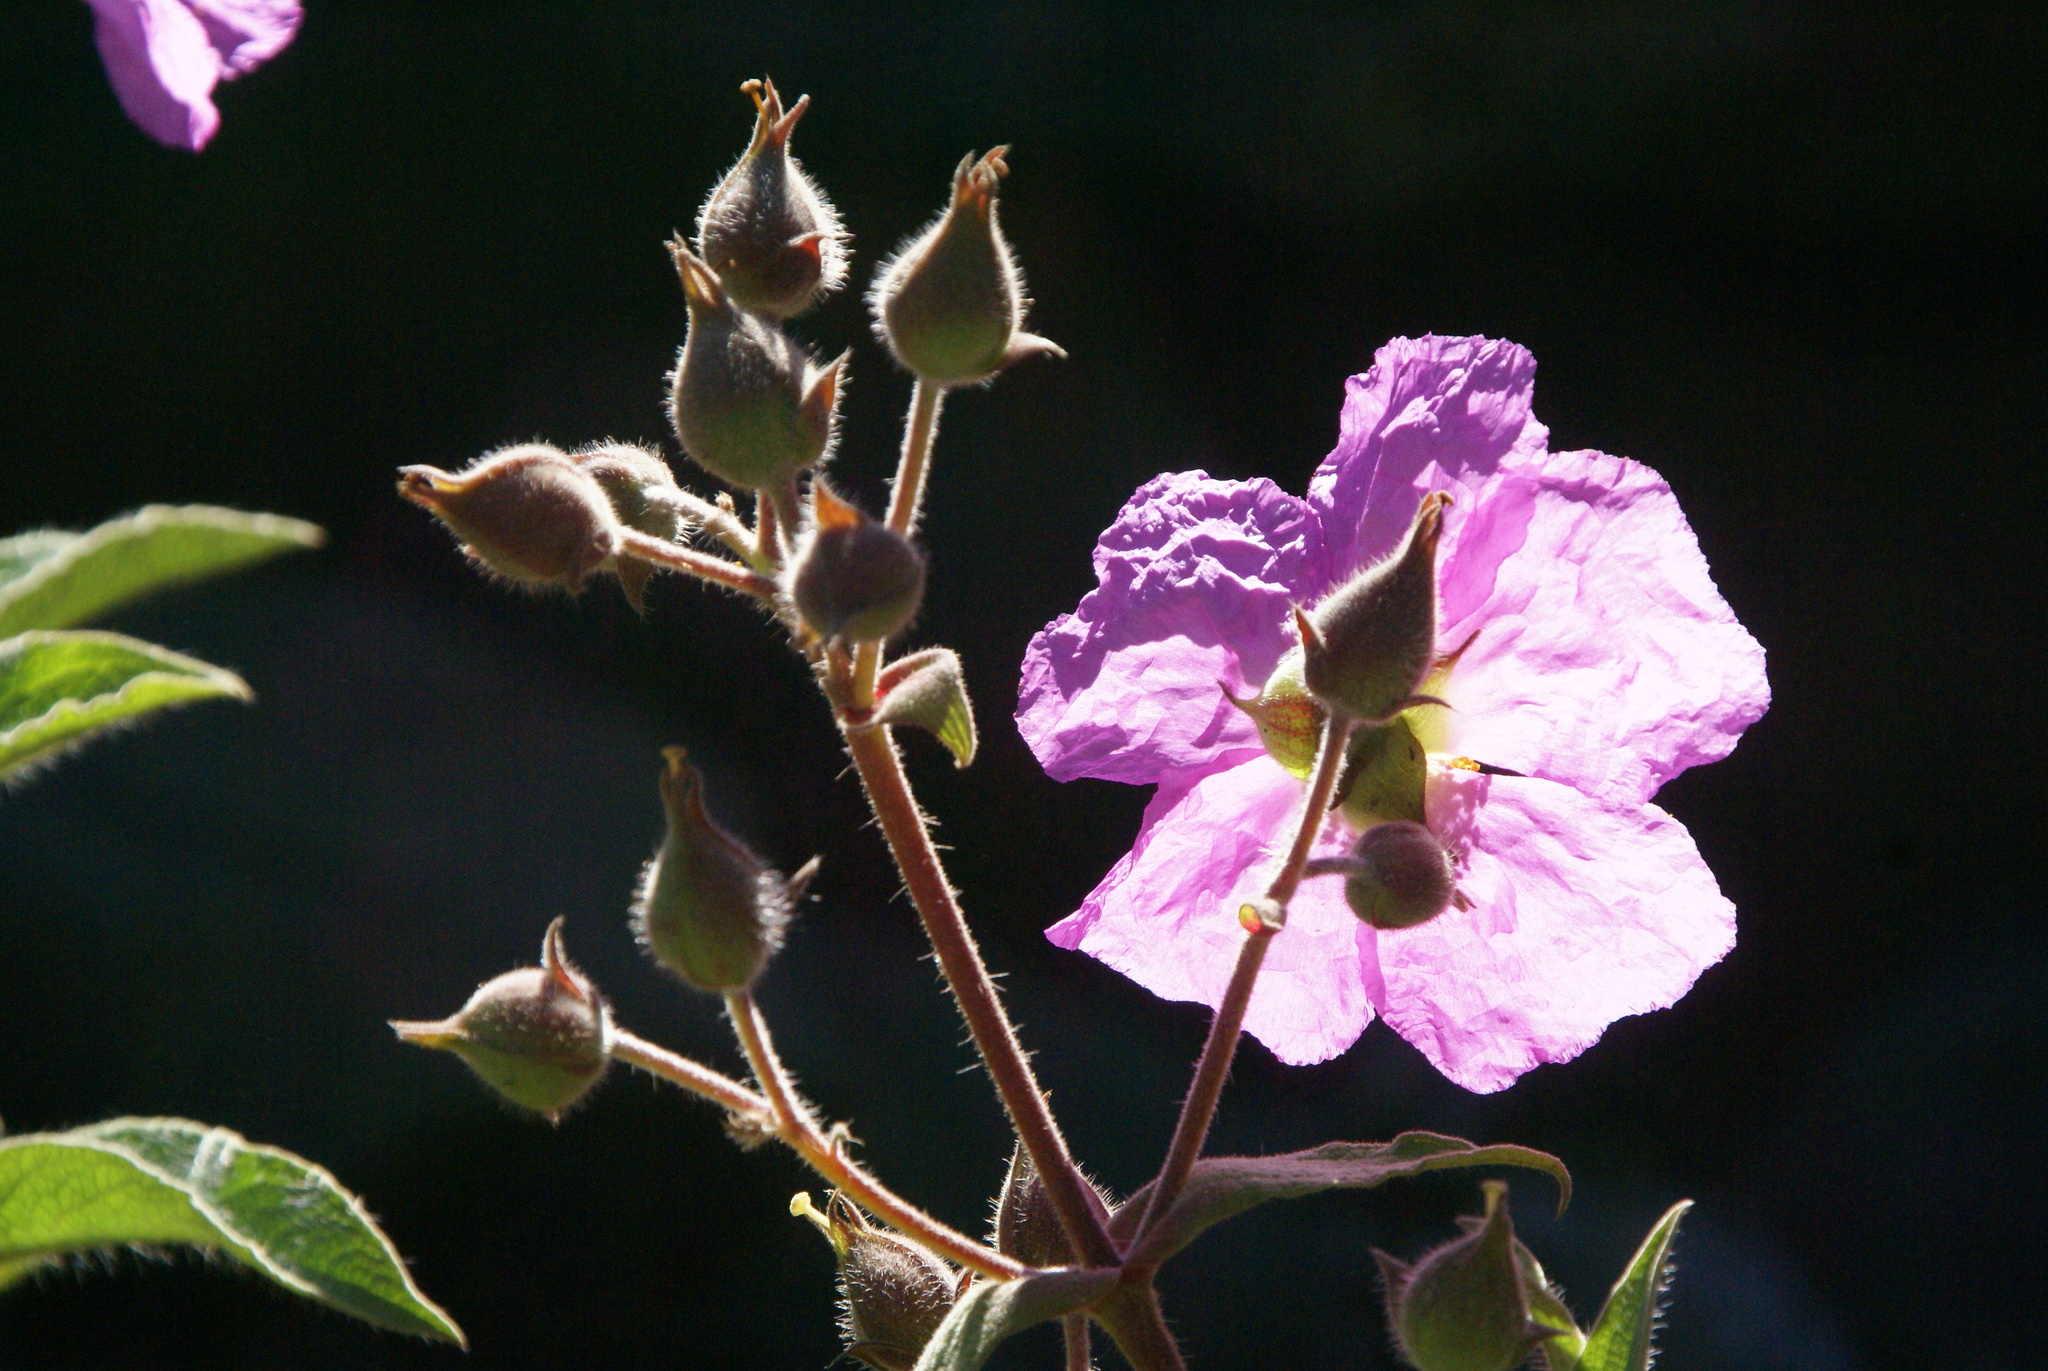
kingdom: Plantae
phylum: Tracheophyta
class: Magnoliopsida
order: Malvales
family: Cistaceae
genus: Cistus
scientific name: Cistus symphytifolius
